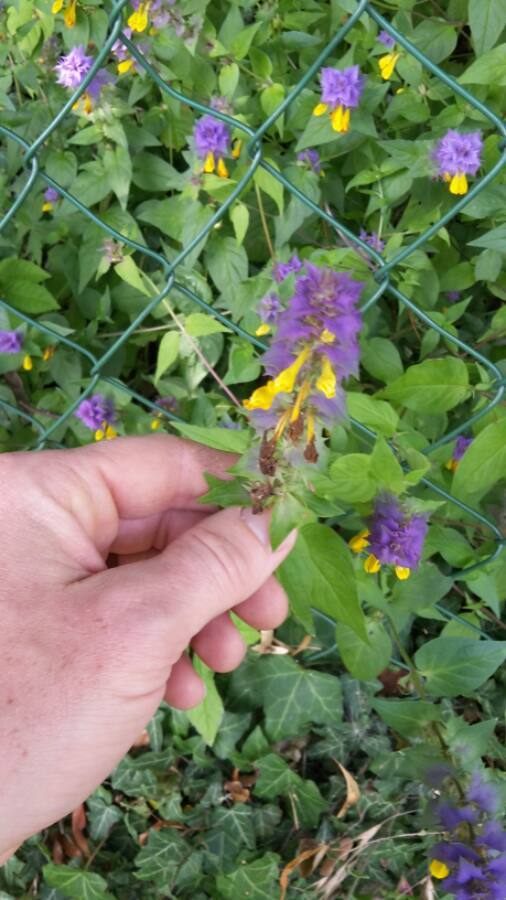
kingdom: Plantae
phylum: Tracheophyta
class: Magnoliopsida
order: Lamiales
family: Orobanchaceae
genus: Melampyrum
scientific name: Melampyrum nemorosum
